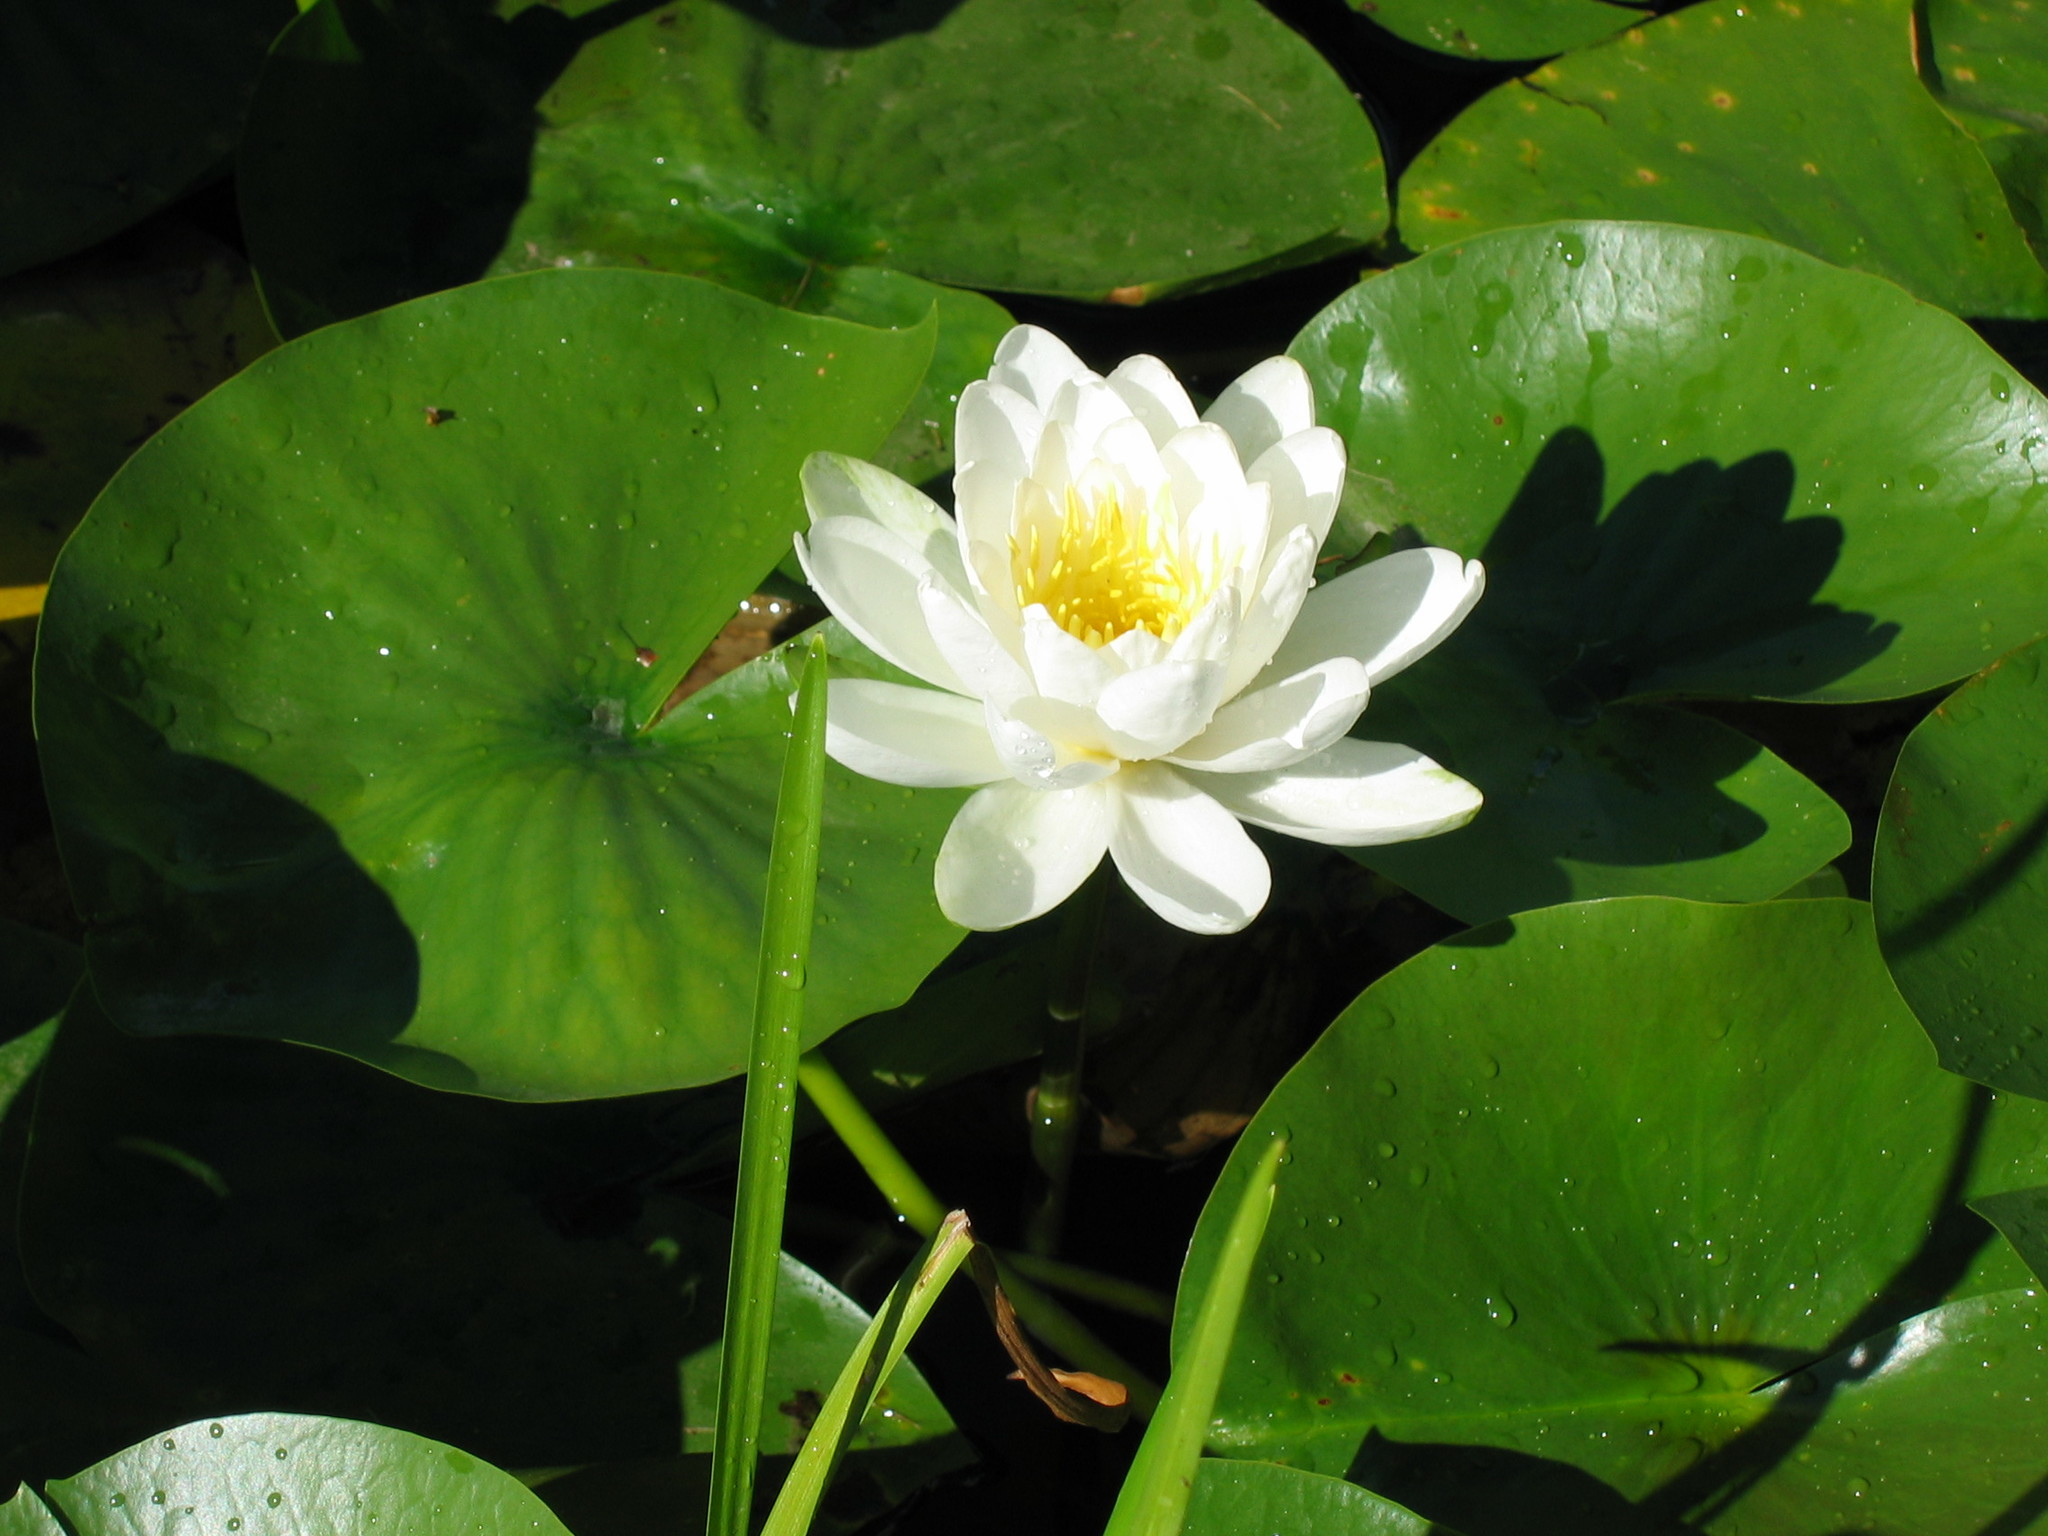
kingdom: Plantae
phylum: Tracheophyta
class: Magnoliopsida
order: Nymphaeales
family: Nymphaeaceae
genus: Nymphaea
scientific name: Nymphaea odorata
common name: Fragrant water-lily
